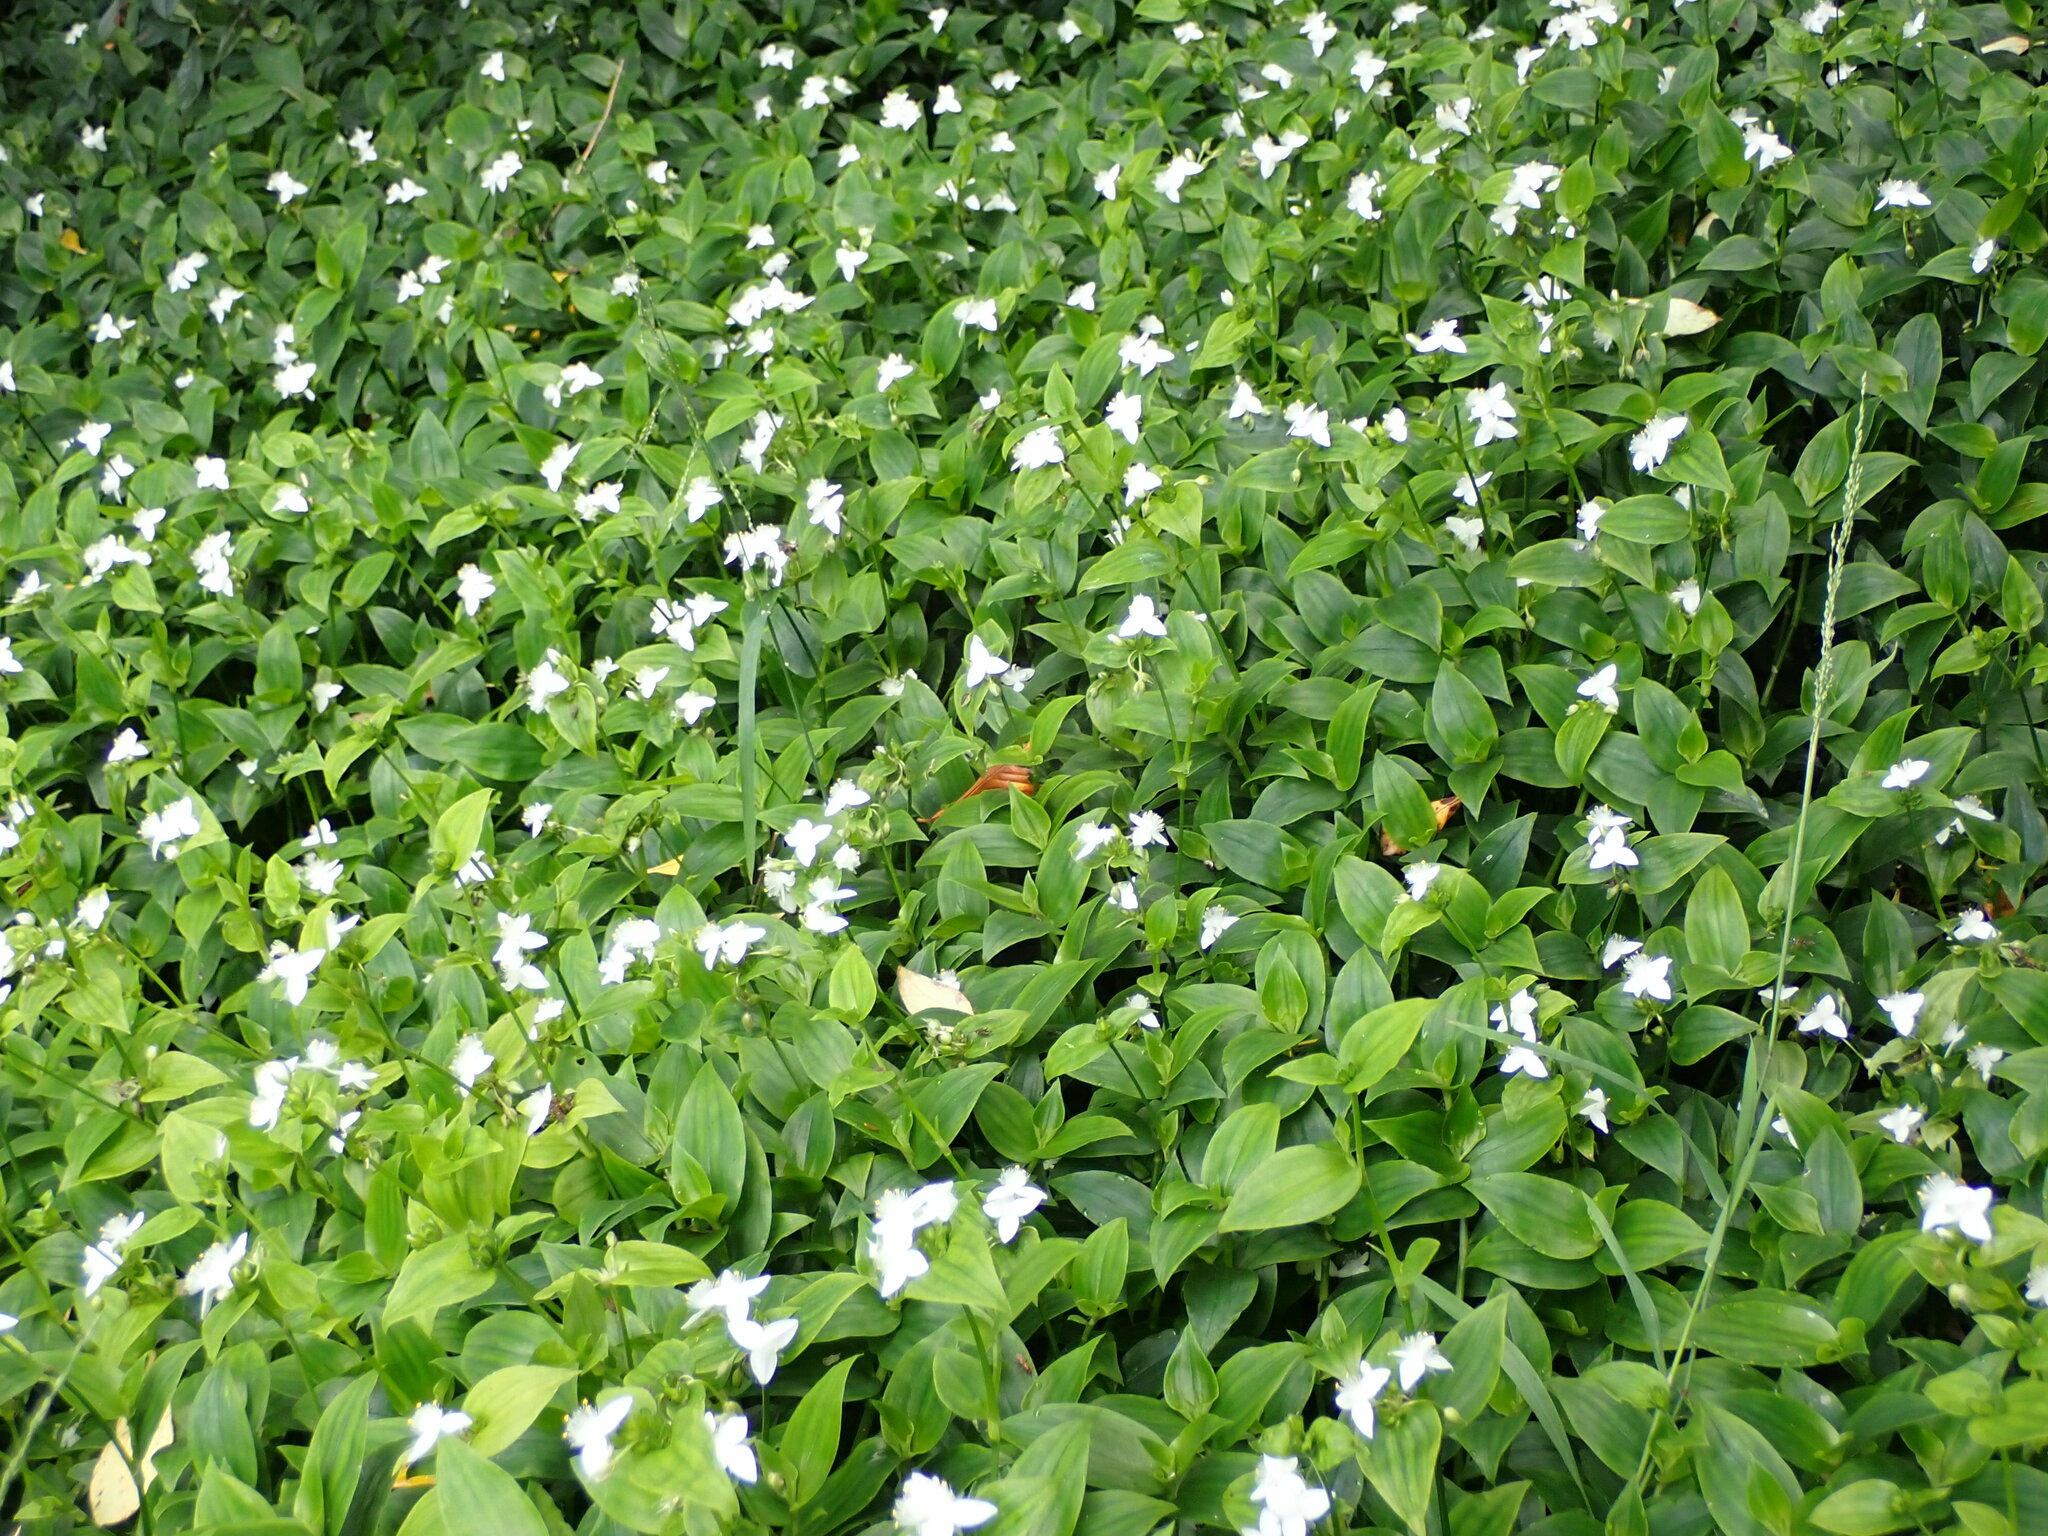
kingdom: Plantae
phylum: Tracheophyta
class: Liliopsida
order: Commelinales
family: Commelinaceae
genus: Tradescantia
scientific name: Tradescantia fluminensis
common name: Wandering-jew
